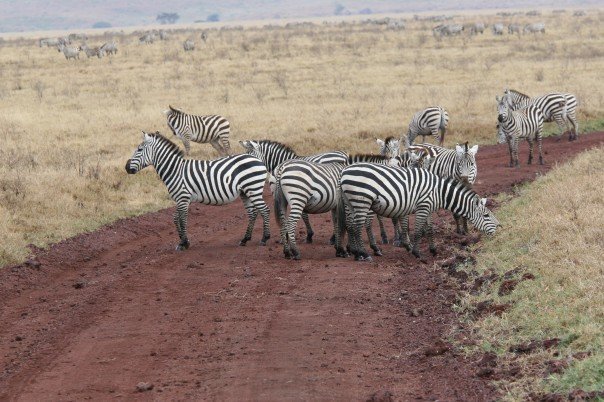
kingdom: Animalia
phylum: Chordata
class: Mammalia
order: Perissodactyla
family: Equidae
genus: Equus
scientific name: Equus quagga
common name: Plains zebra
